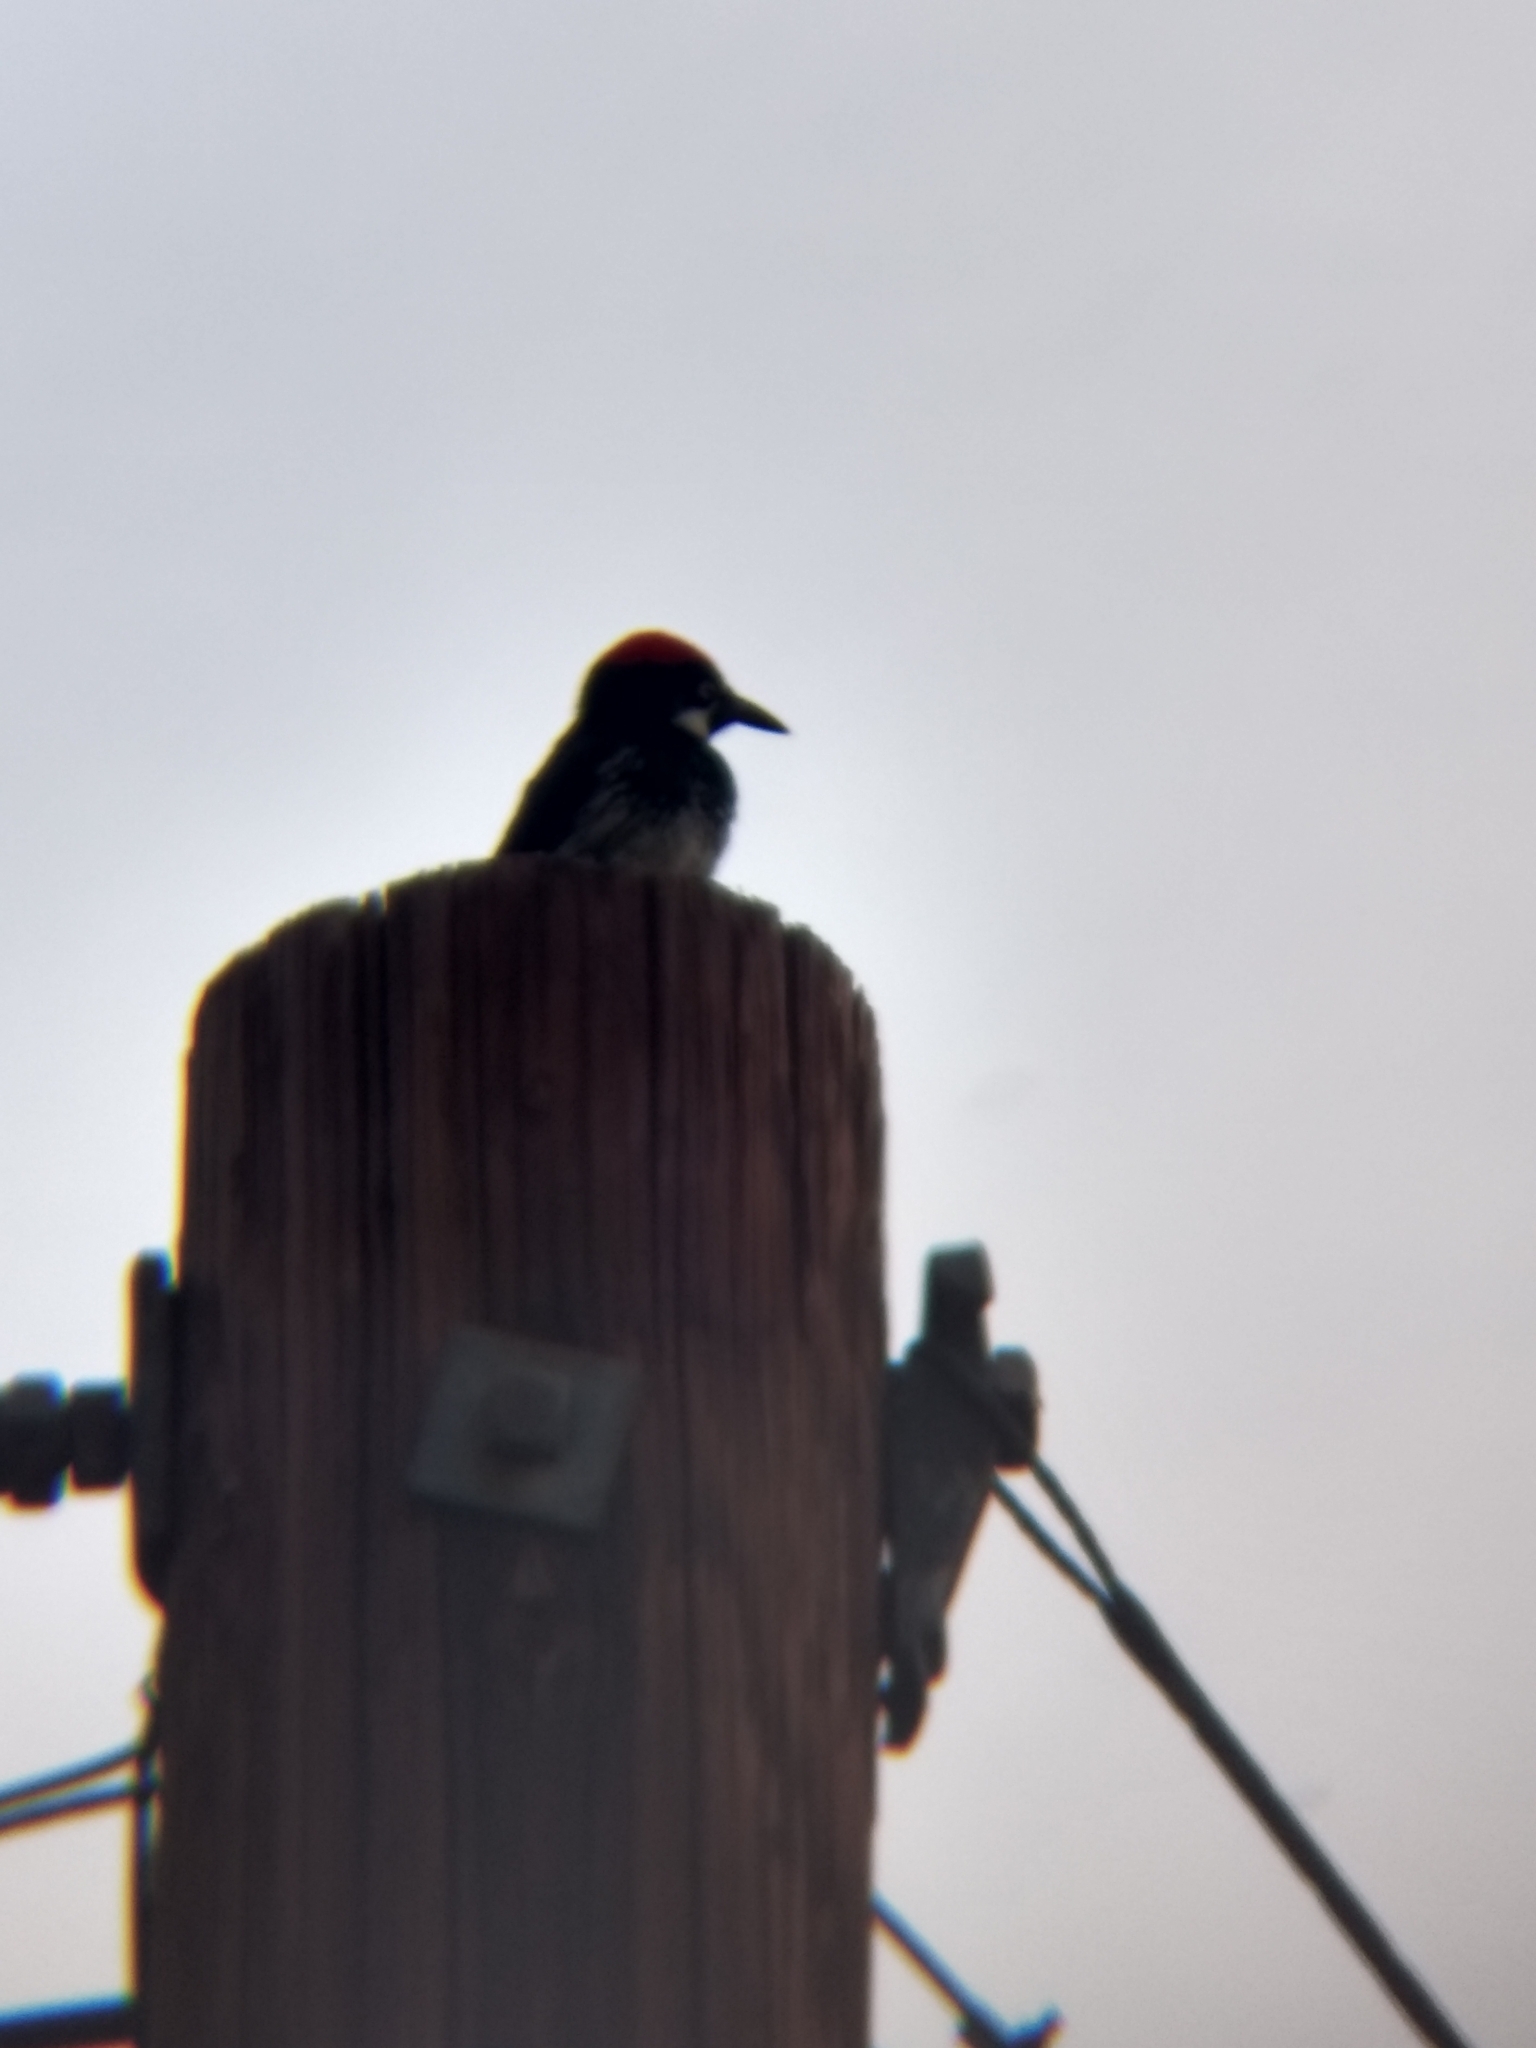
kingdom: Animalia
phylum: Chordata
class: Aves
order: Piciformes
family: Picidae
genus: Melanerpes
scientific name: Melanerpes formicivorus
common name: Acorn woodpecker
